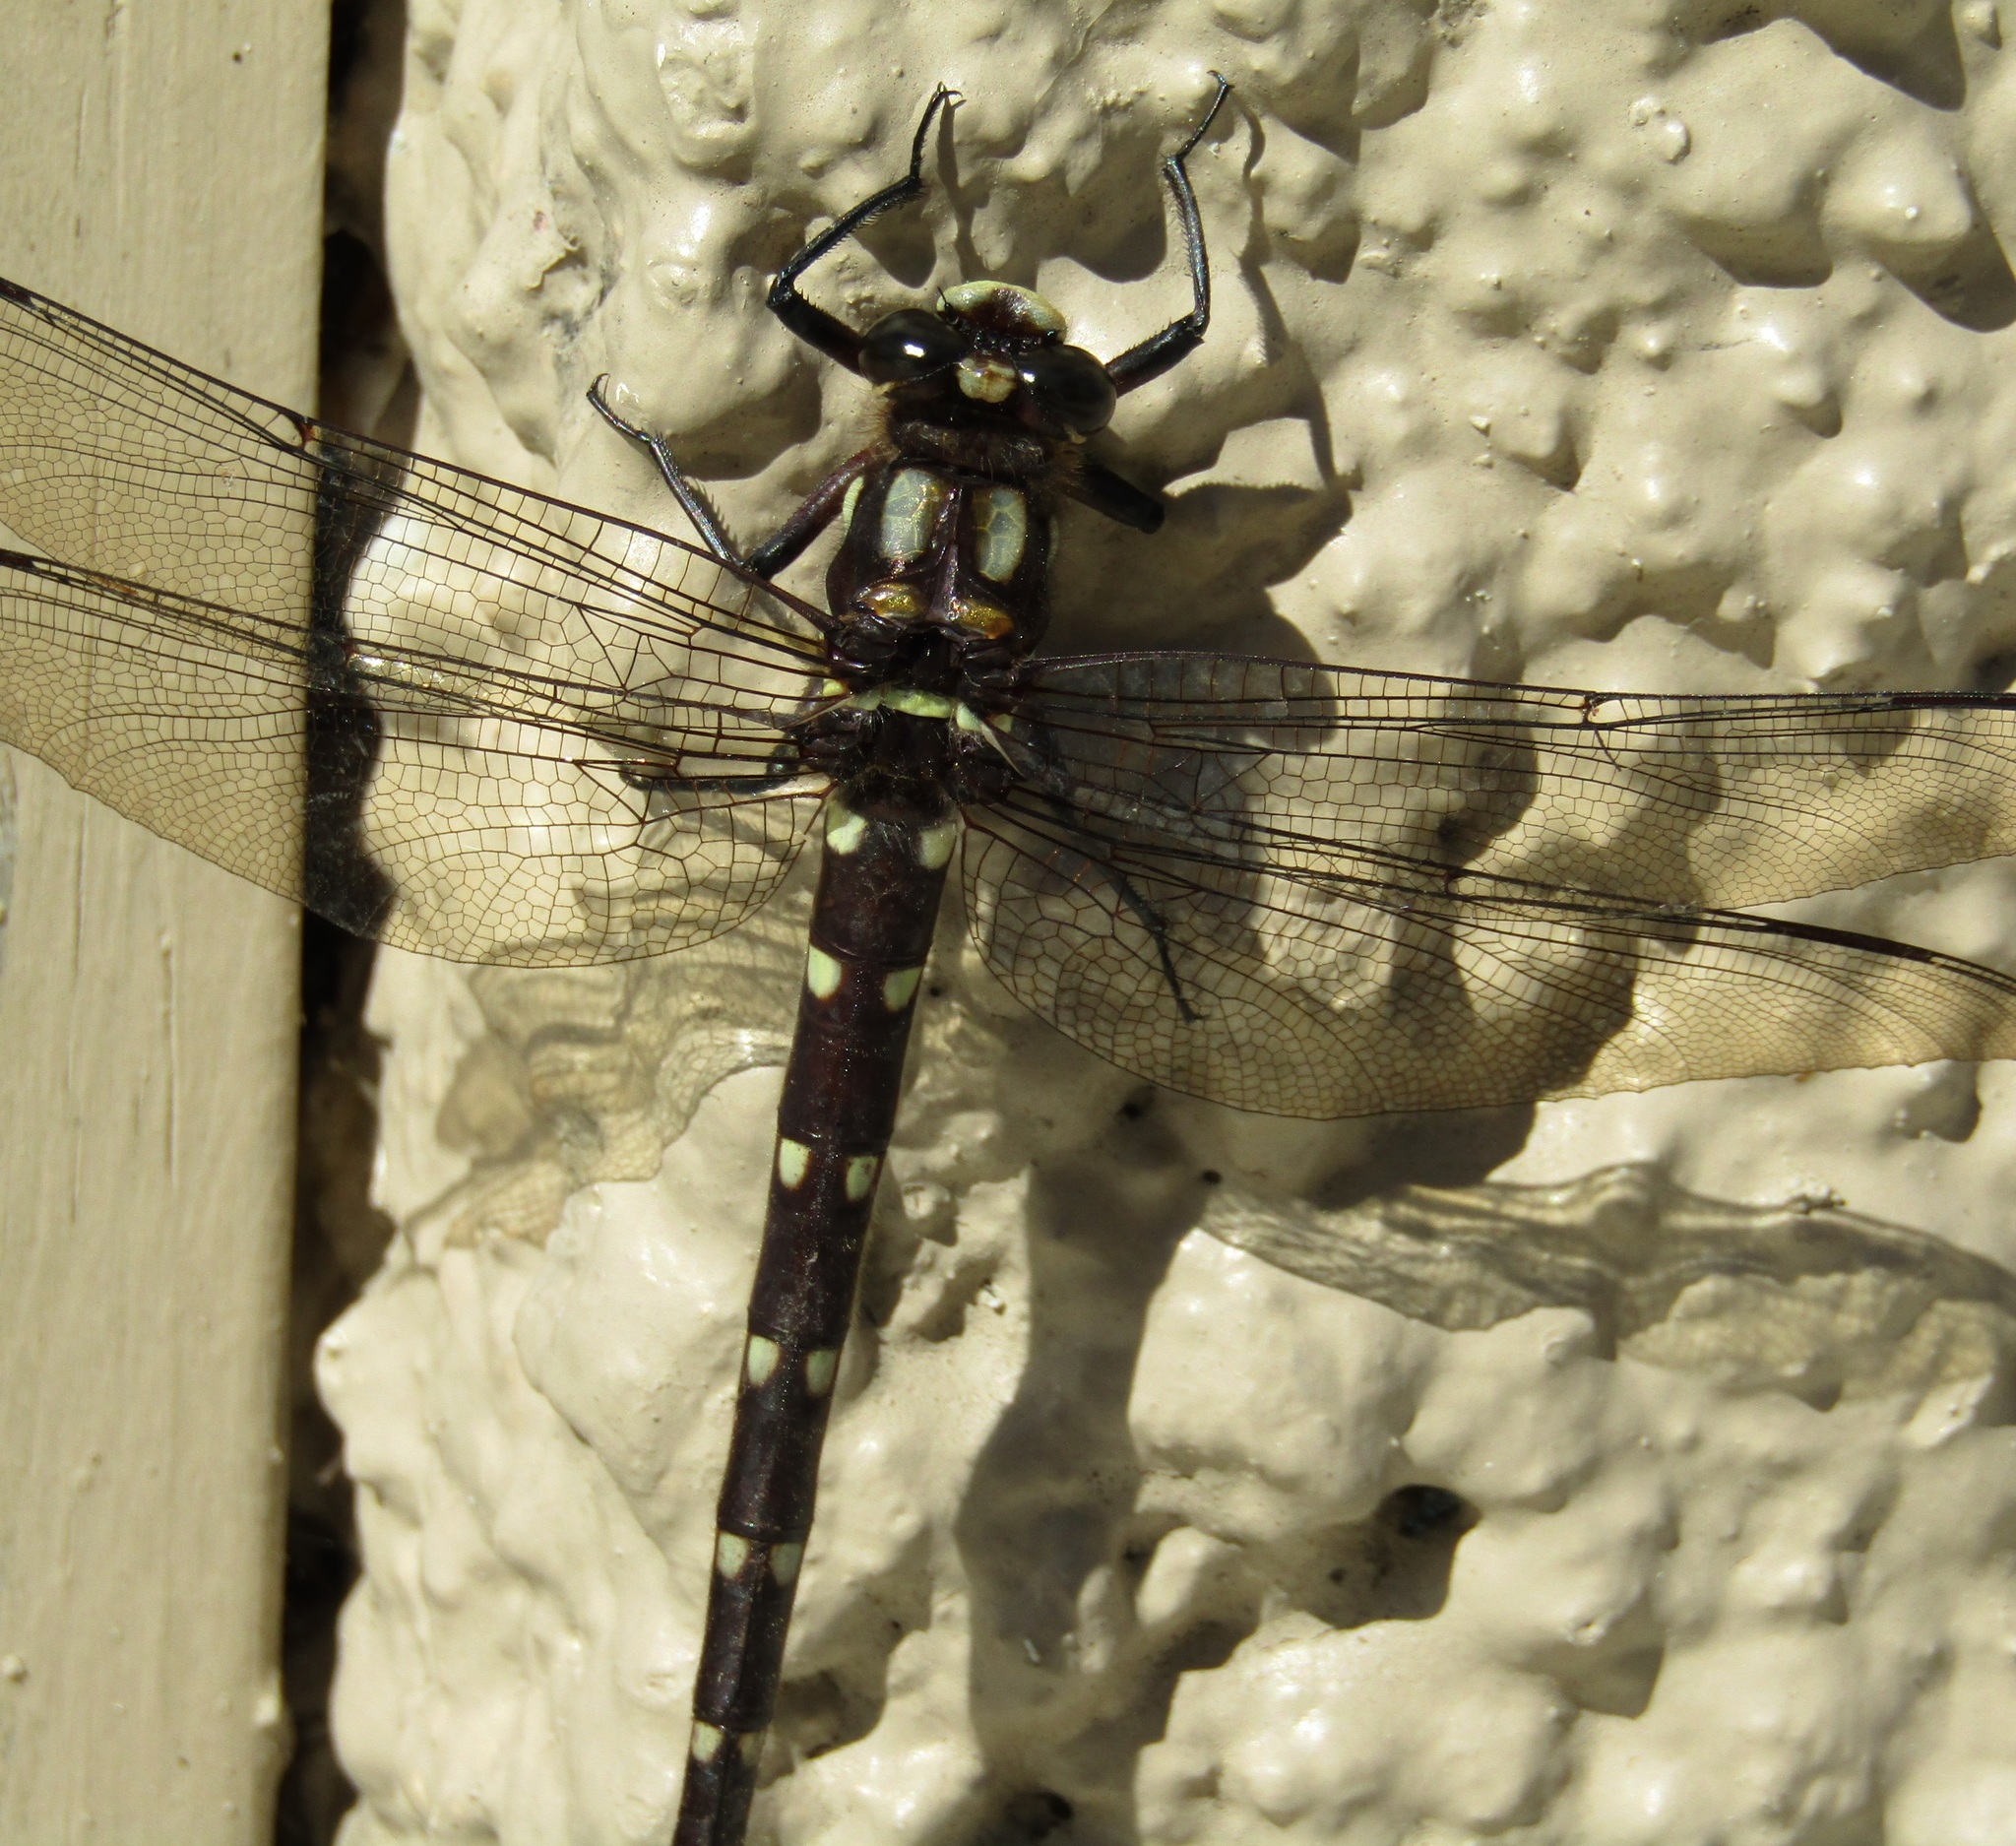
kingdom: Animalia
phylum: Arthropoda
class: Insecta
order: Odonata
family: Petaluridae
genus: Uropetala
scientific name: Uropetala carovei
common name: Bush giant dragonfly
